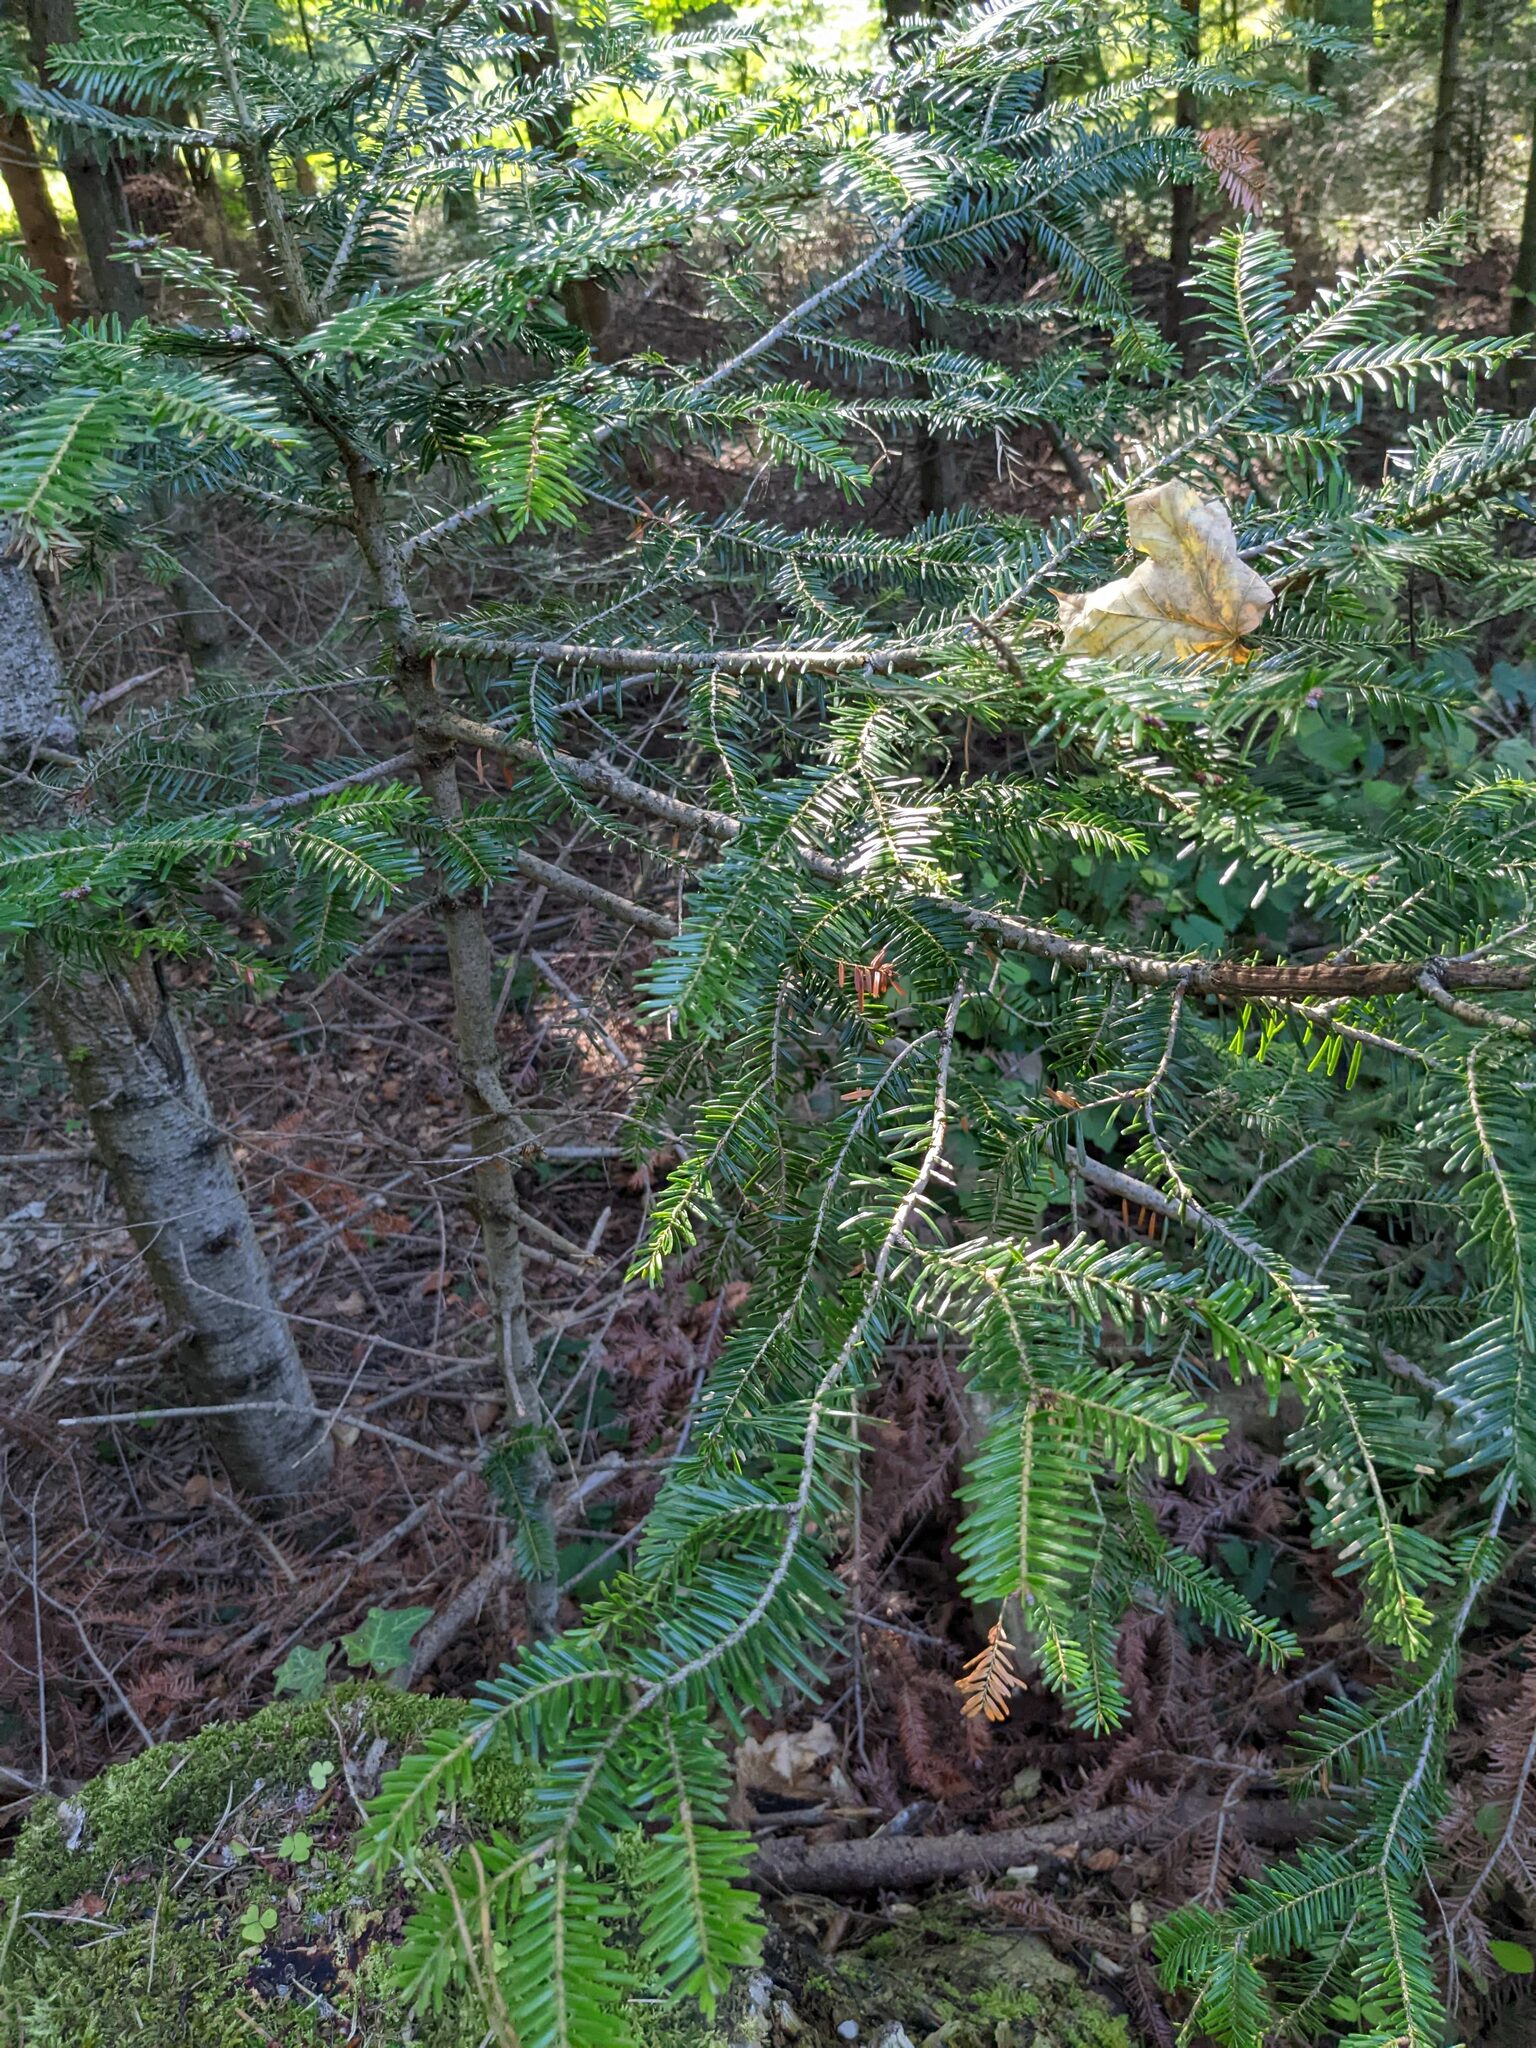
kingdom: Plantae
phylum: Tracheophyta
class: Pinopsida
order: Pinales
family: Pinaceae
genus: Abies
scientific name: Abies alba
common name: Silver fir
